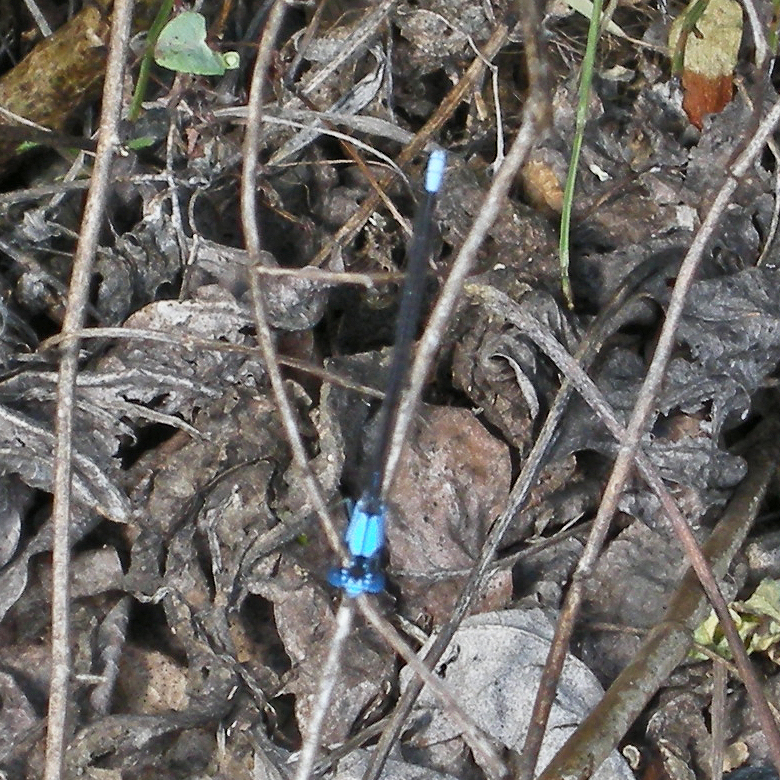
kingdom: Animalia
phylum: Arthropoda
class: Insecta
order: Odonata
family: Coenagrionidae
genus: Argia
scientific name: Argia apicalis
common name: Blue-fronted dancer
